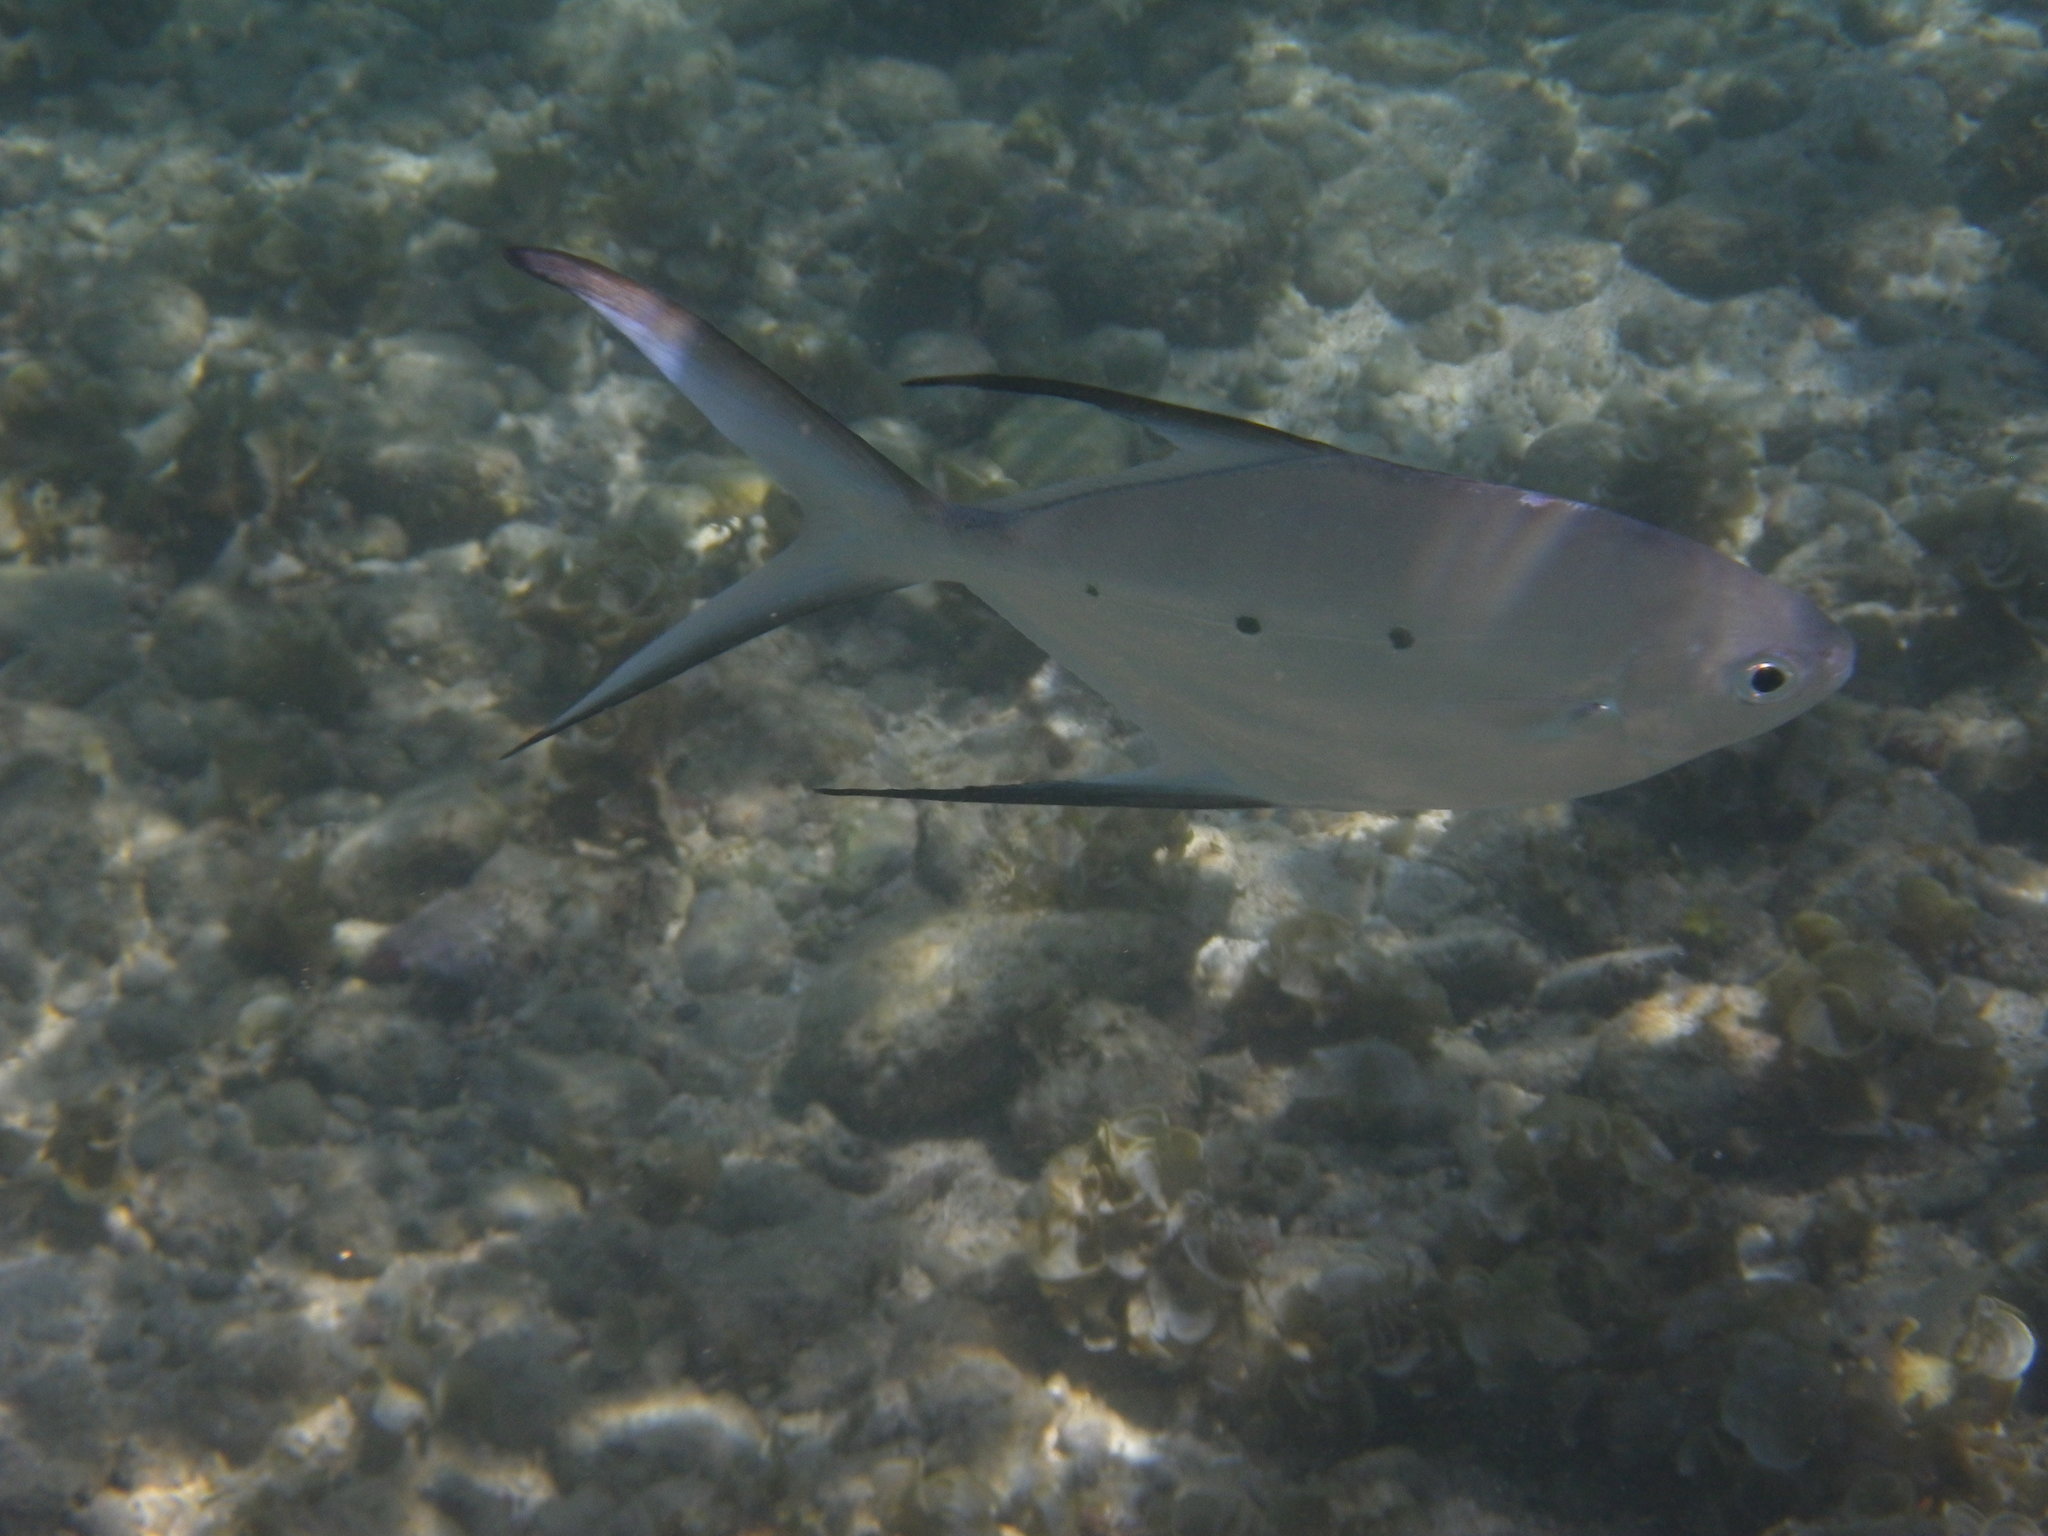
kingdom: Animalia
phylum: Chordata
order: Perciformes
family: Carangidae
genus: Trachinotus
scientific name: Trachinotus baillonii
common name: Smallspotted dart
